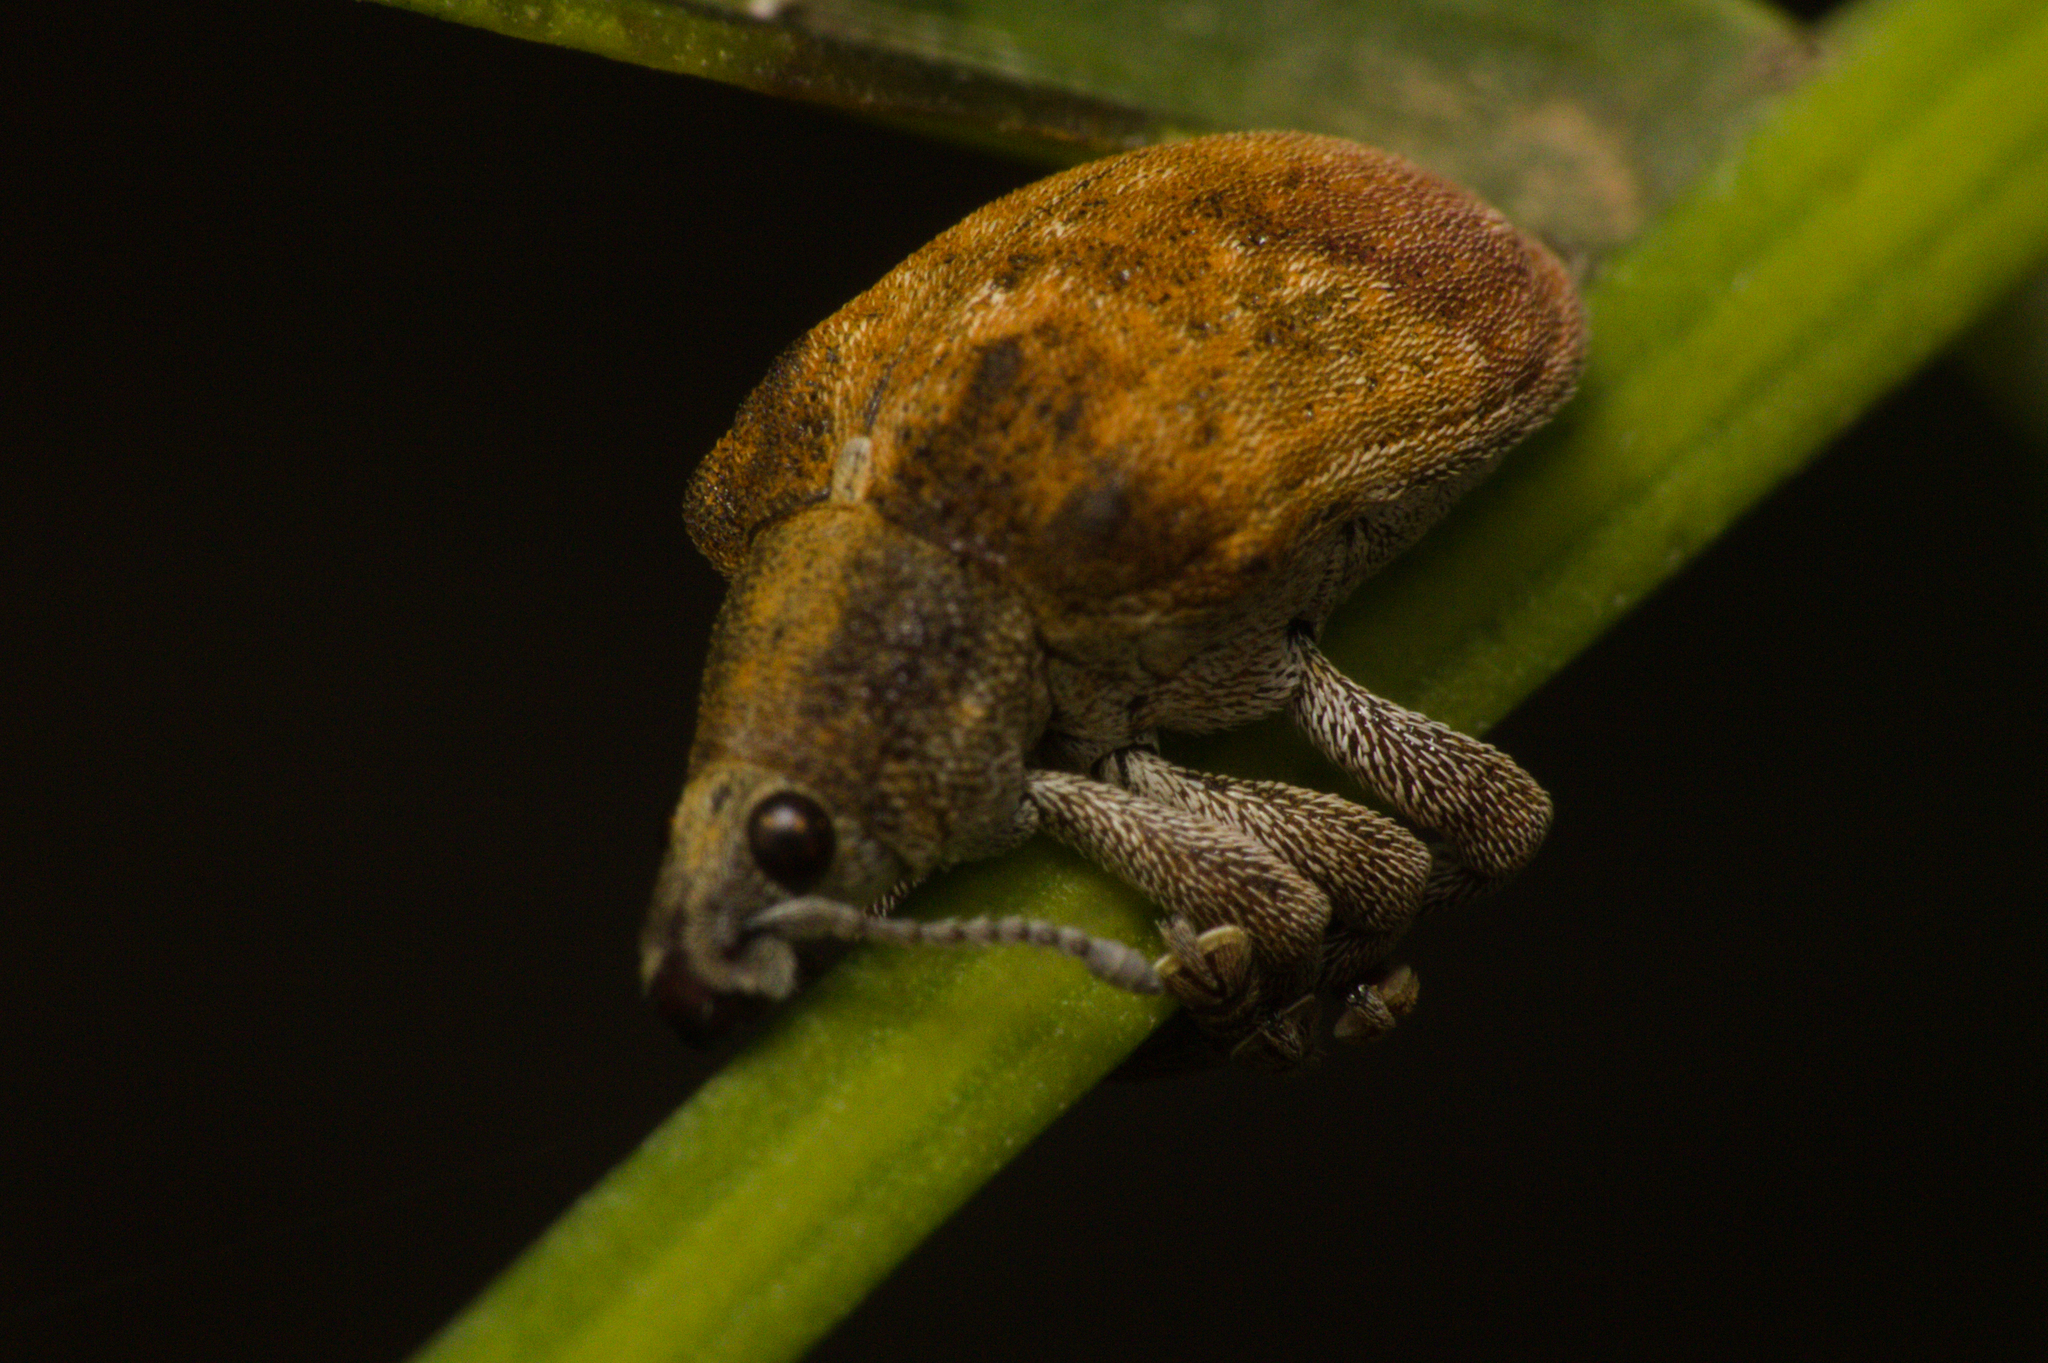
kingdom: Animalia
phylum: Arthropoda
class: Insecta
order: Coleoptera
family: Curculionidae
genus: Gonipterus
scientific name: Gonipterus platensis
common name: Eucalyptus snout beetle
